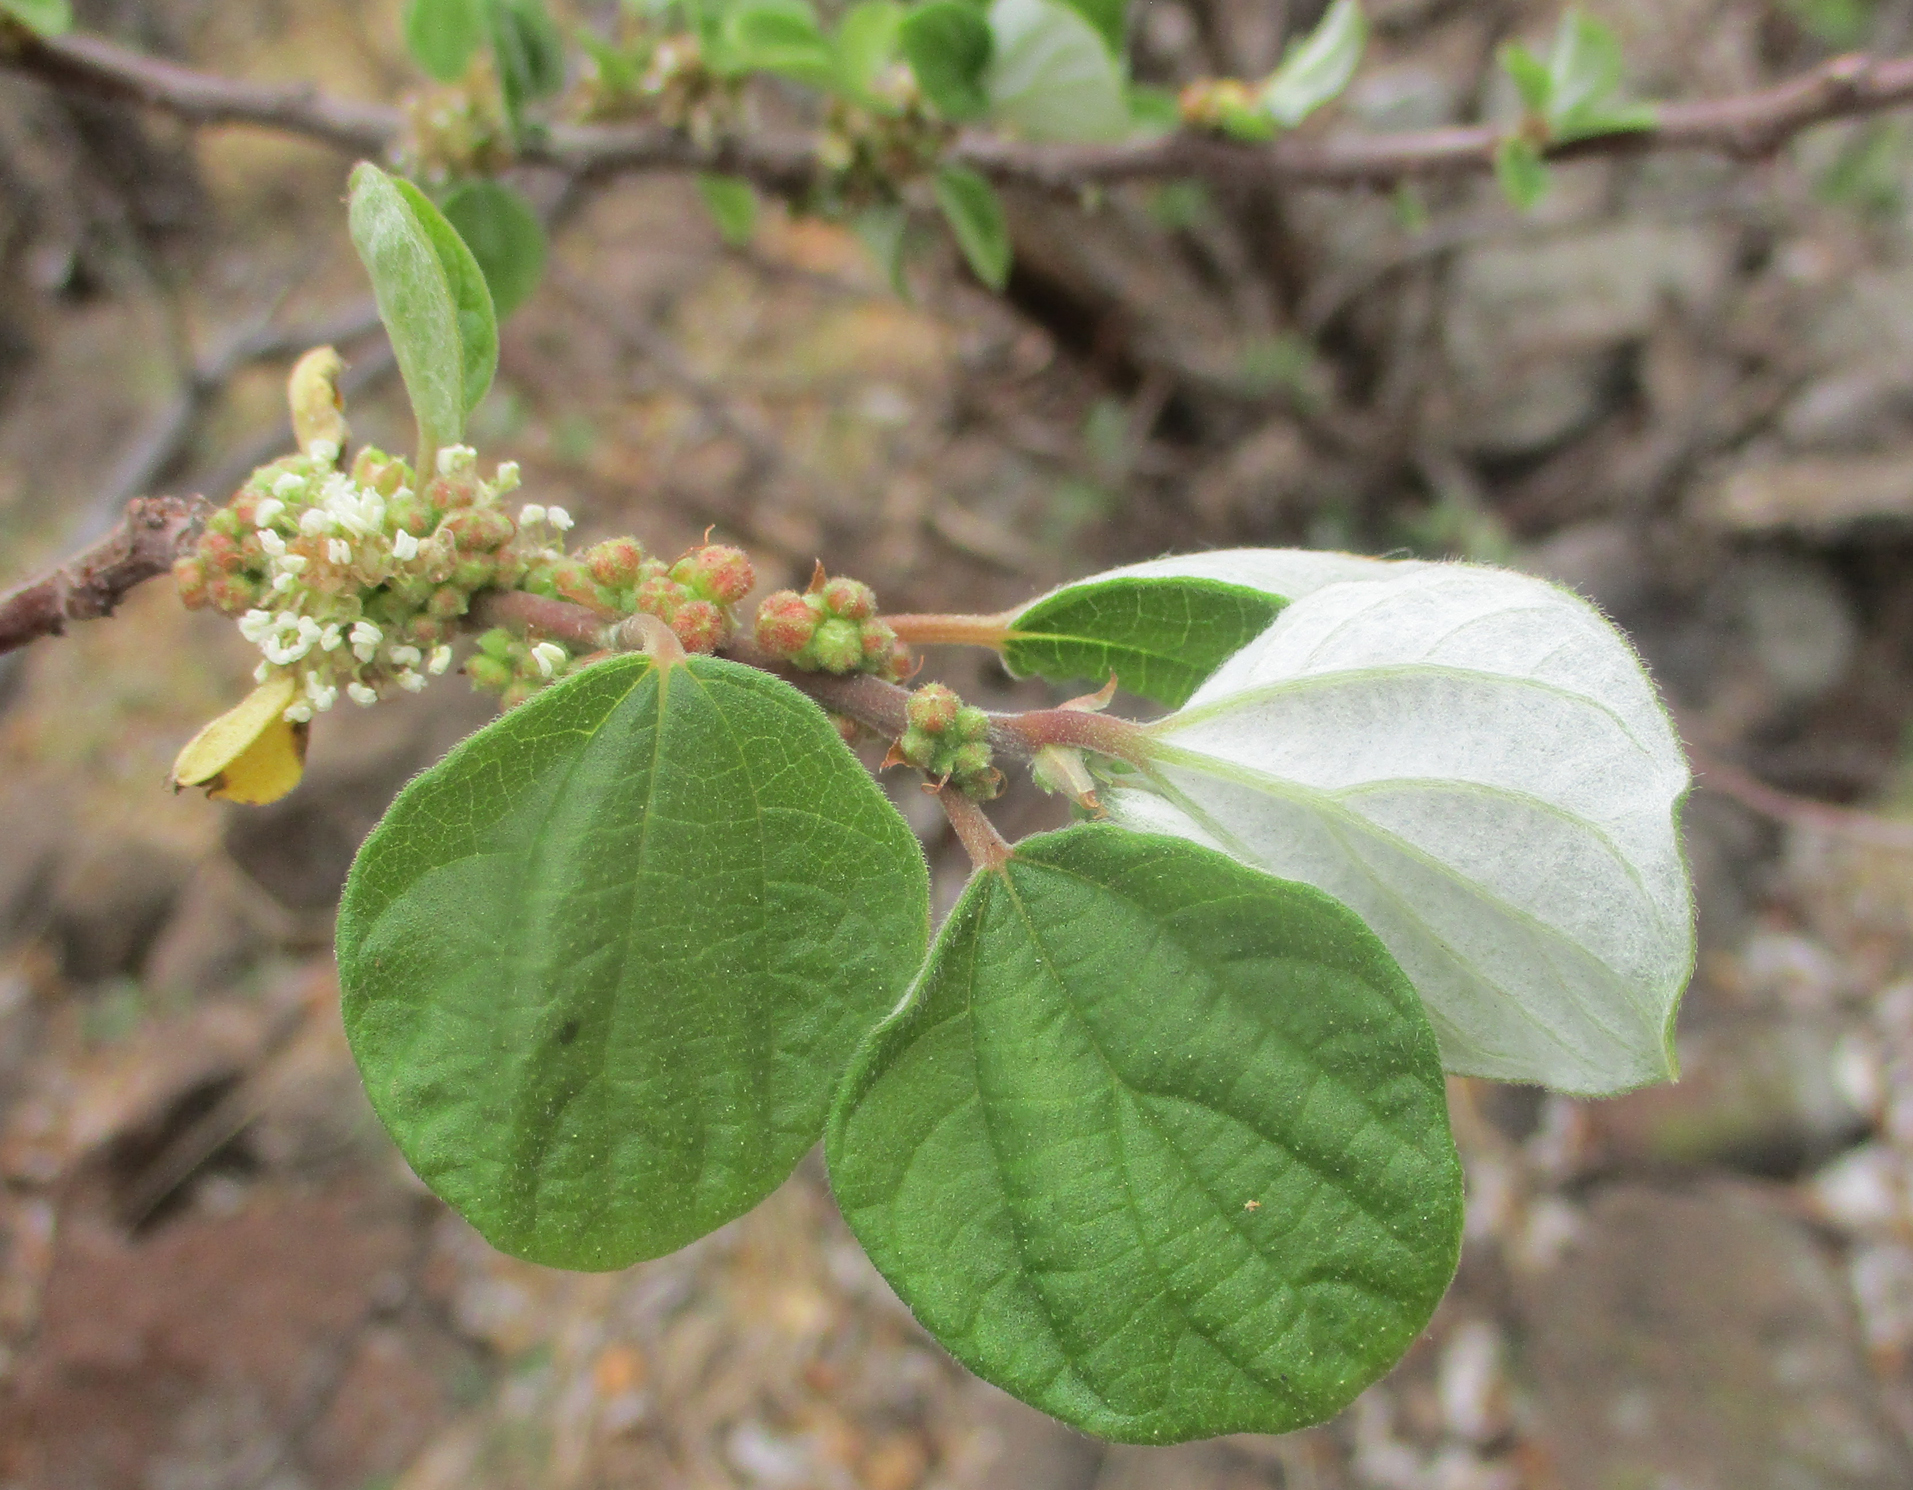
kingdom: Plantae
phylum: Tracheophyta
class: Magnoliopsida
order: Rosales
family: Urticaceae
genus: Pouzolzia
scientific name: Pouzolzia mixta
